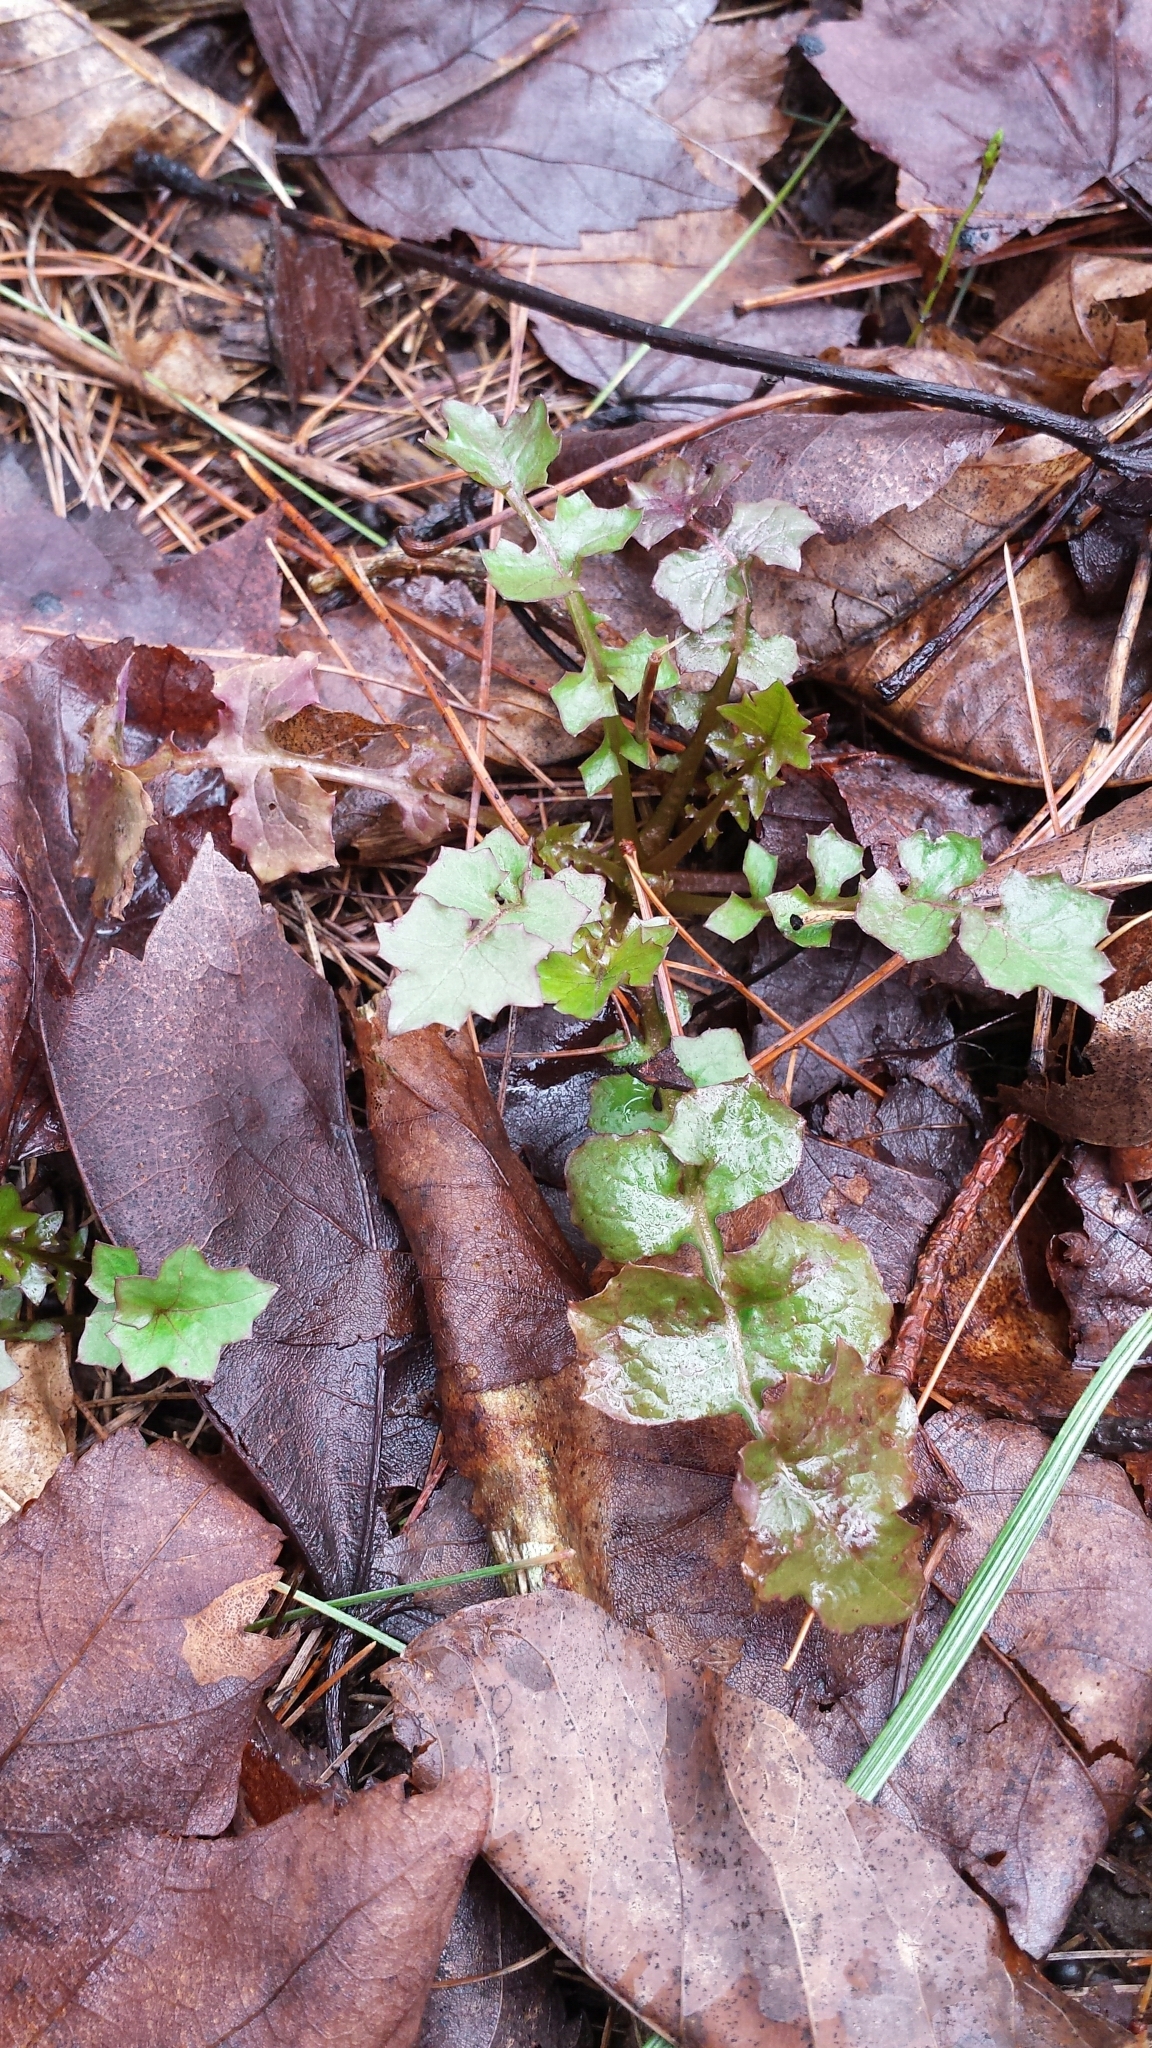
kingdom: Plantae
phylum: Tracheophyta
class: Magnoliopsida
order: Asterales
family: Asteraceae
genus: Mycelis
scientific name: Mycelis muralis
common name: Wall lettuce
